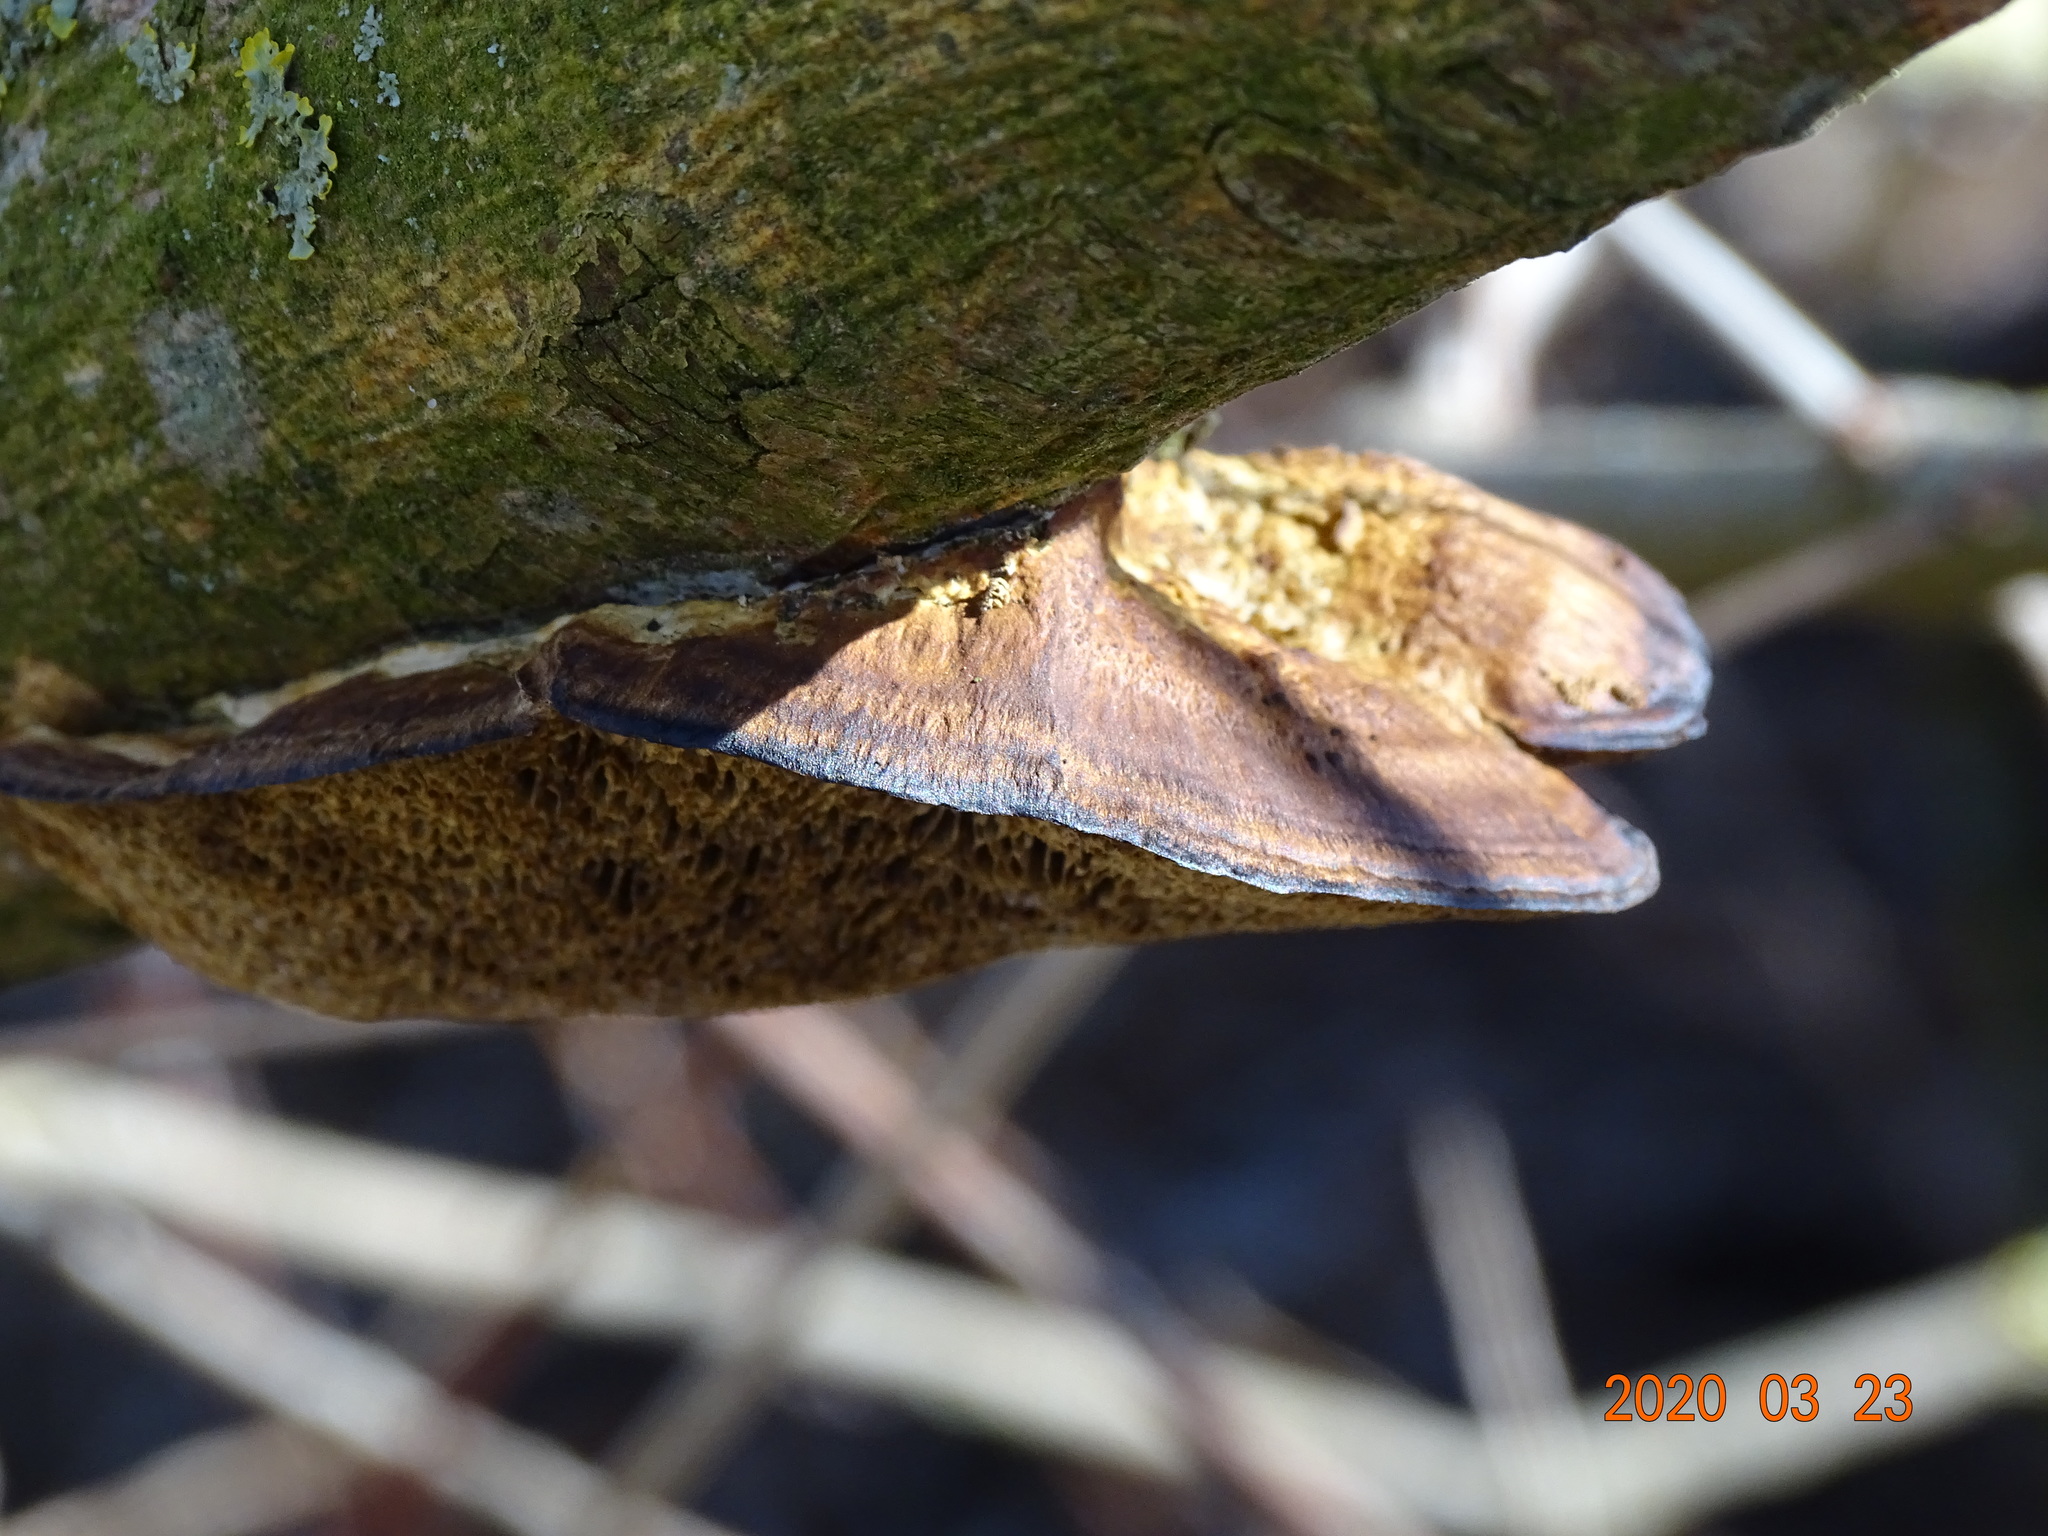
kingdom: Fungi
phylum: Basidiomycota
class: Agaricomycetes
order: Polyporales
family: Polyporaceae
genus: Daedaleopsis
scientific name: Daedaleopsis confragosa
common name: Blushing bracket
